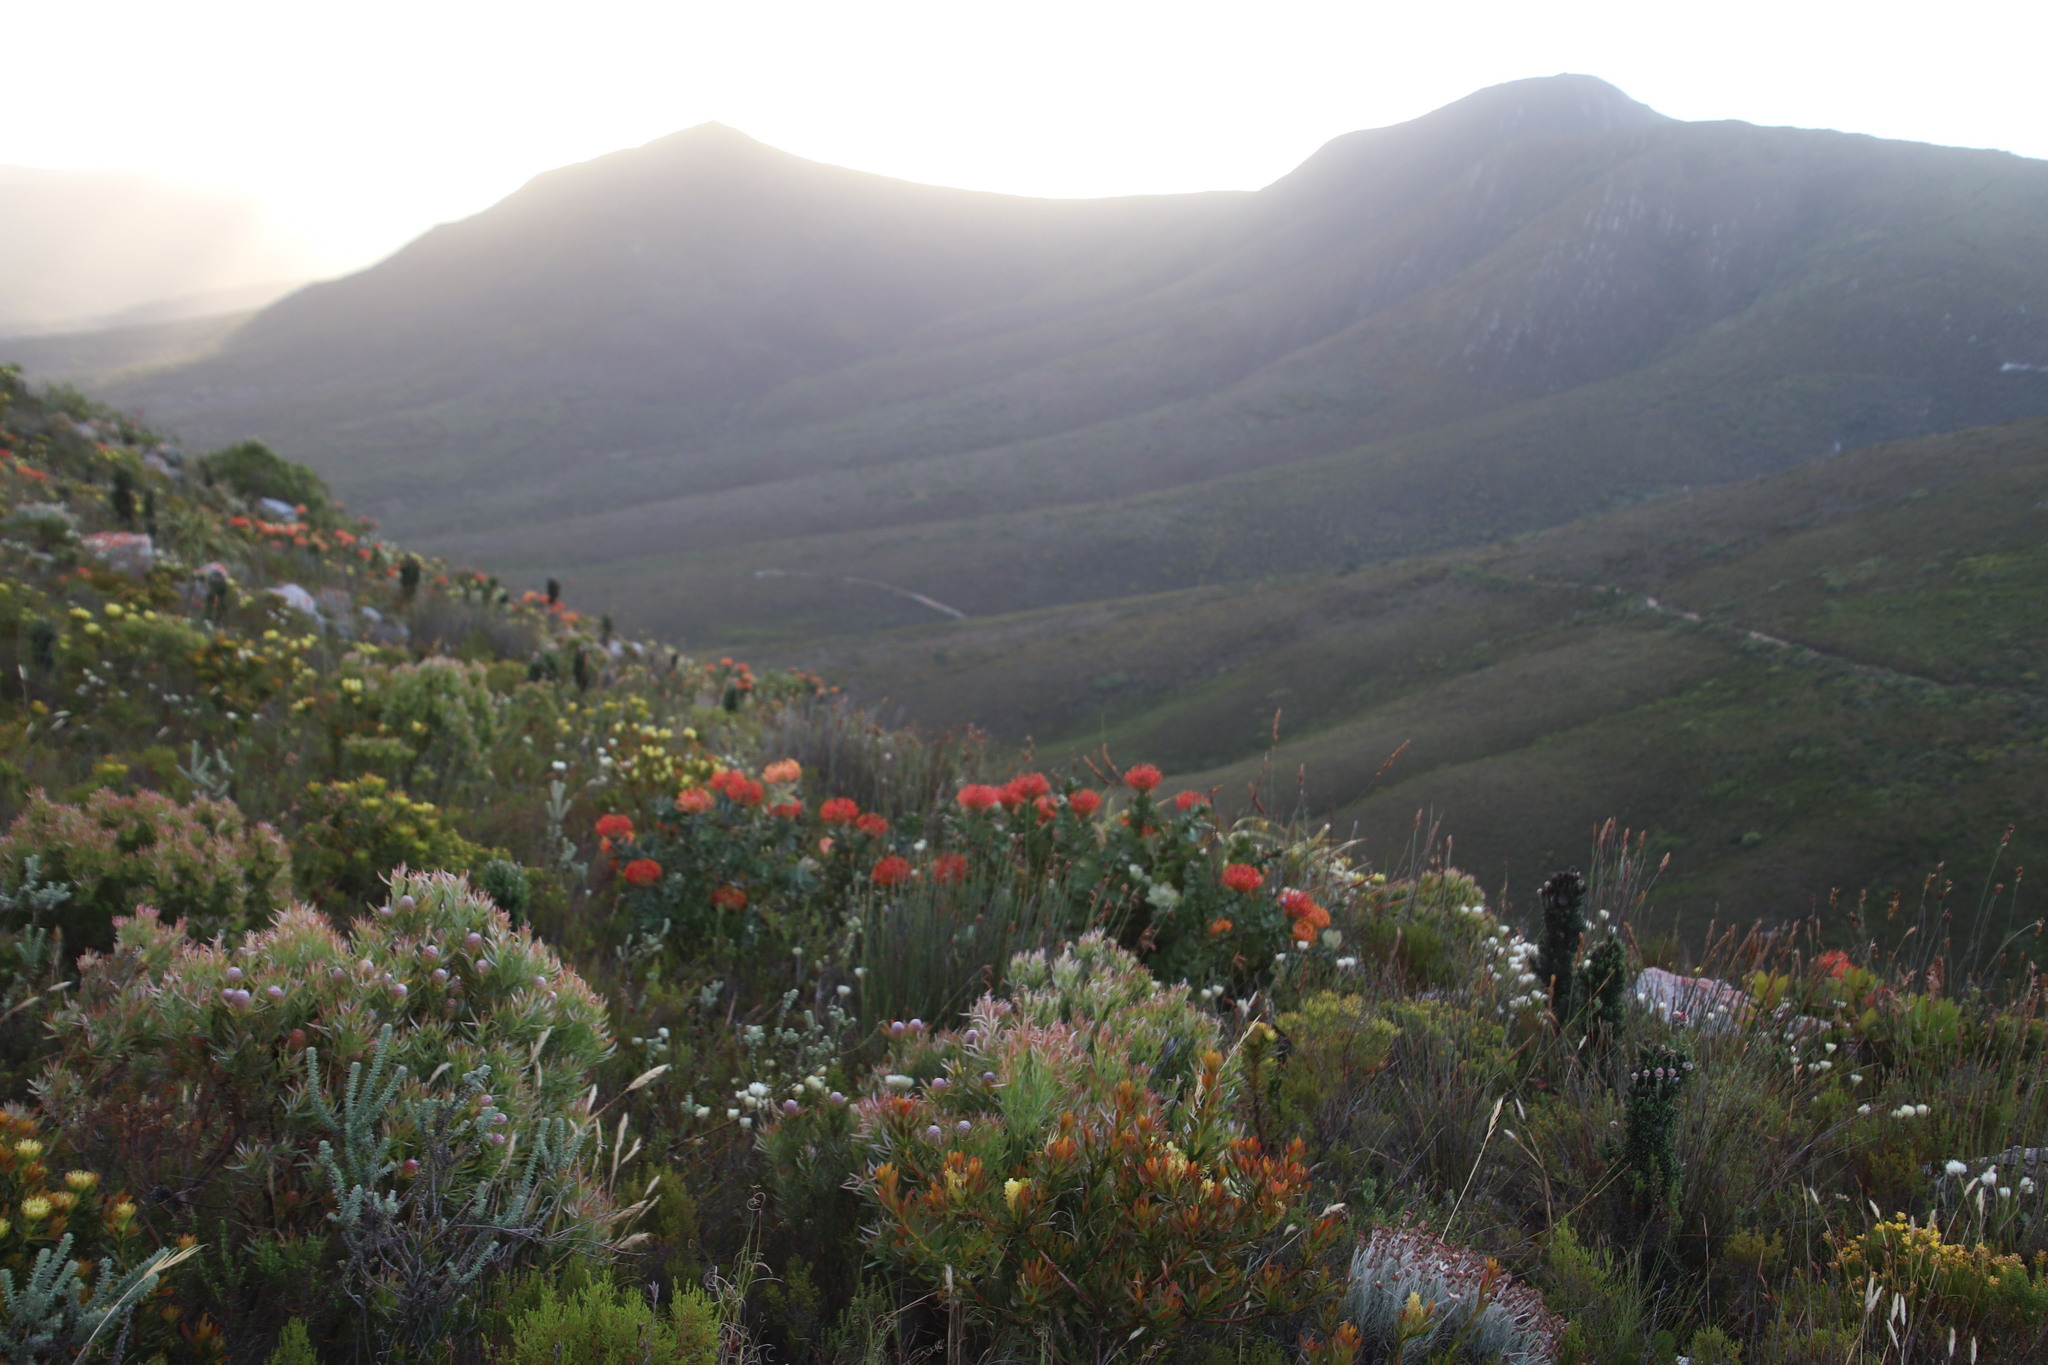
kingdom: Plantae
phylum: Tracheophyta
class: Magnoliopsida
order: Proteales
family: Proteaceae
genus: Leucospermum
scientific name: Leucospermum patersonii
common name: False tree pincushion
